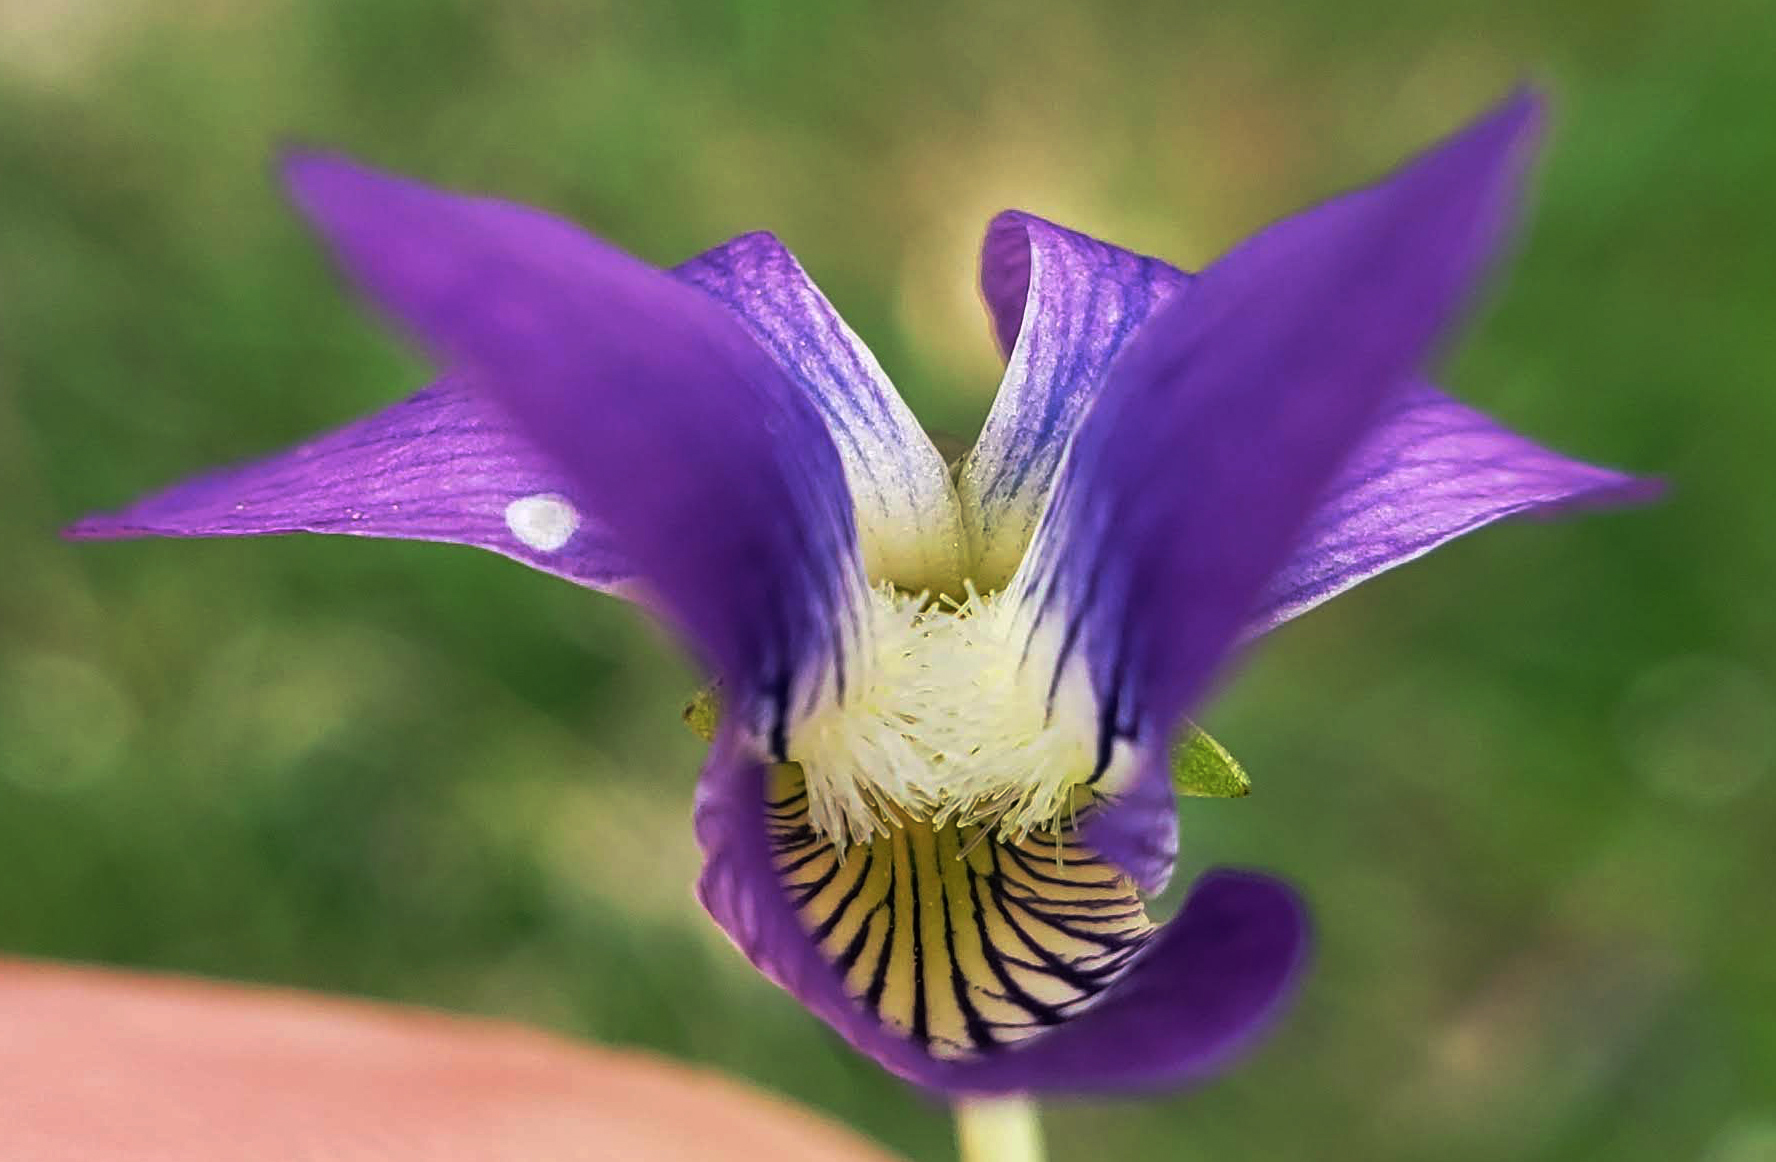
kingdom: Plantae
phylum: Tracheophyta
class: Magnoliopsida
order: Malpighiales
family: Violaceae
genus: Viola
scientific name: Viola sororia
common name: Dooryard violet
